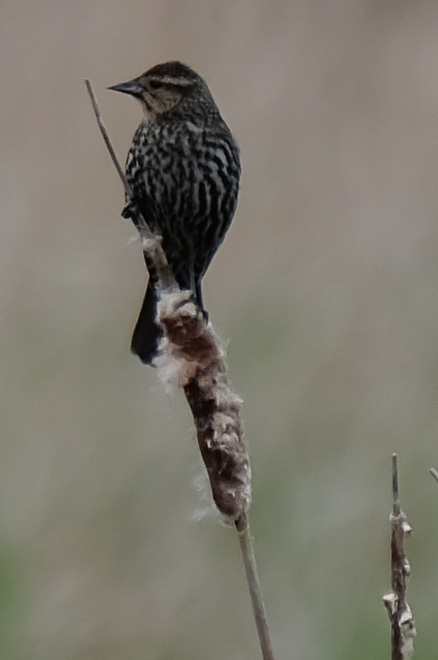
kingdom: Plantae
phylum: Tracheophyta
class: Liliopsida
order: Poales
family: Typhaceae
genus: Typha
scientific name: Typha latifolia
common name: Broadleaf cattail
